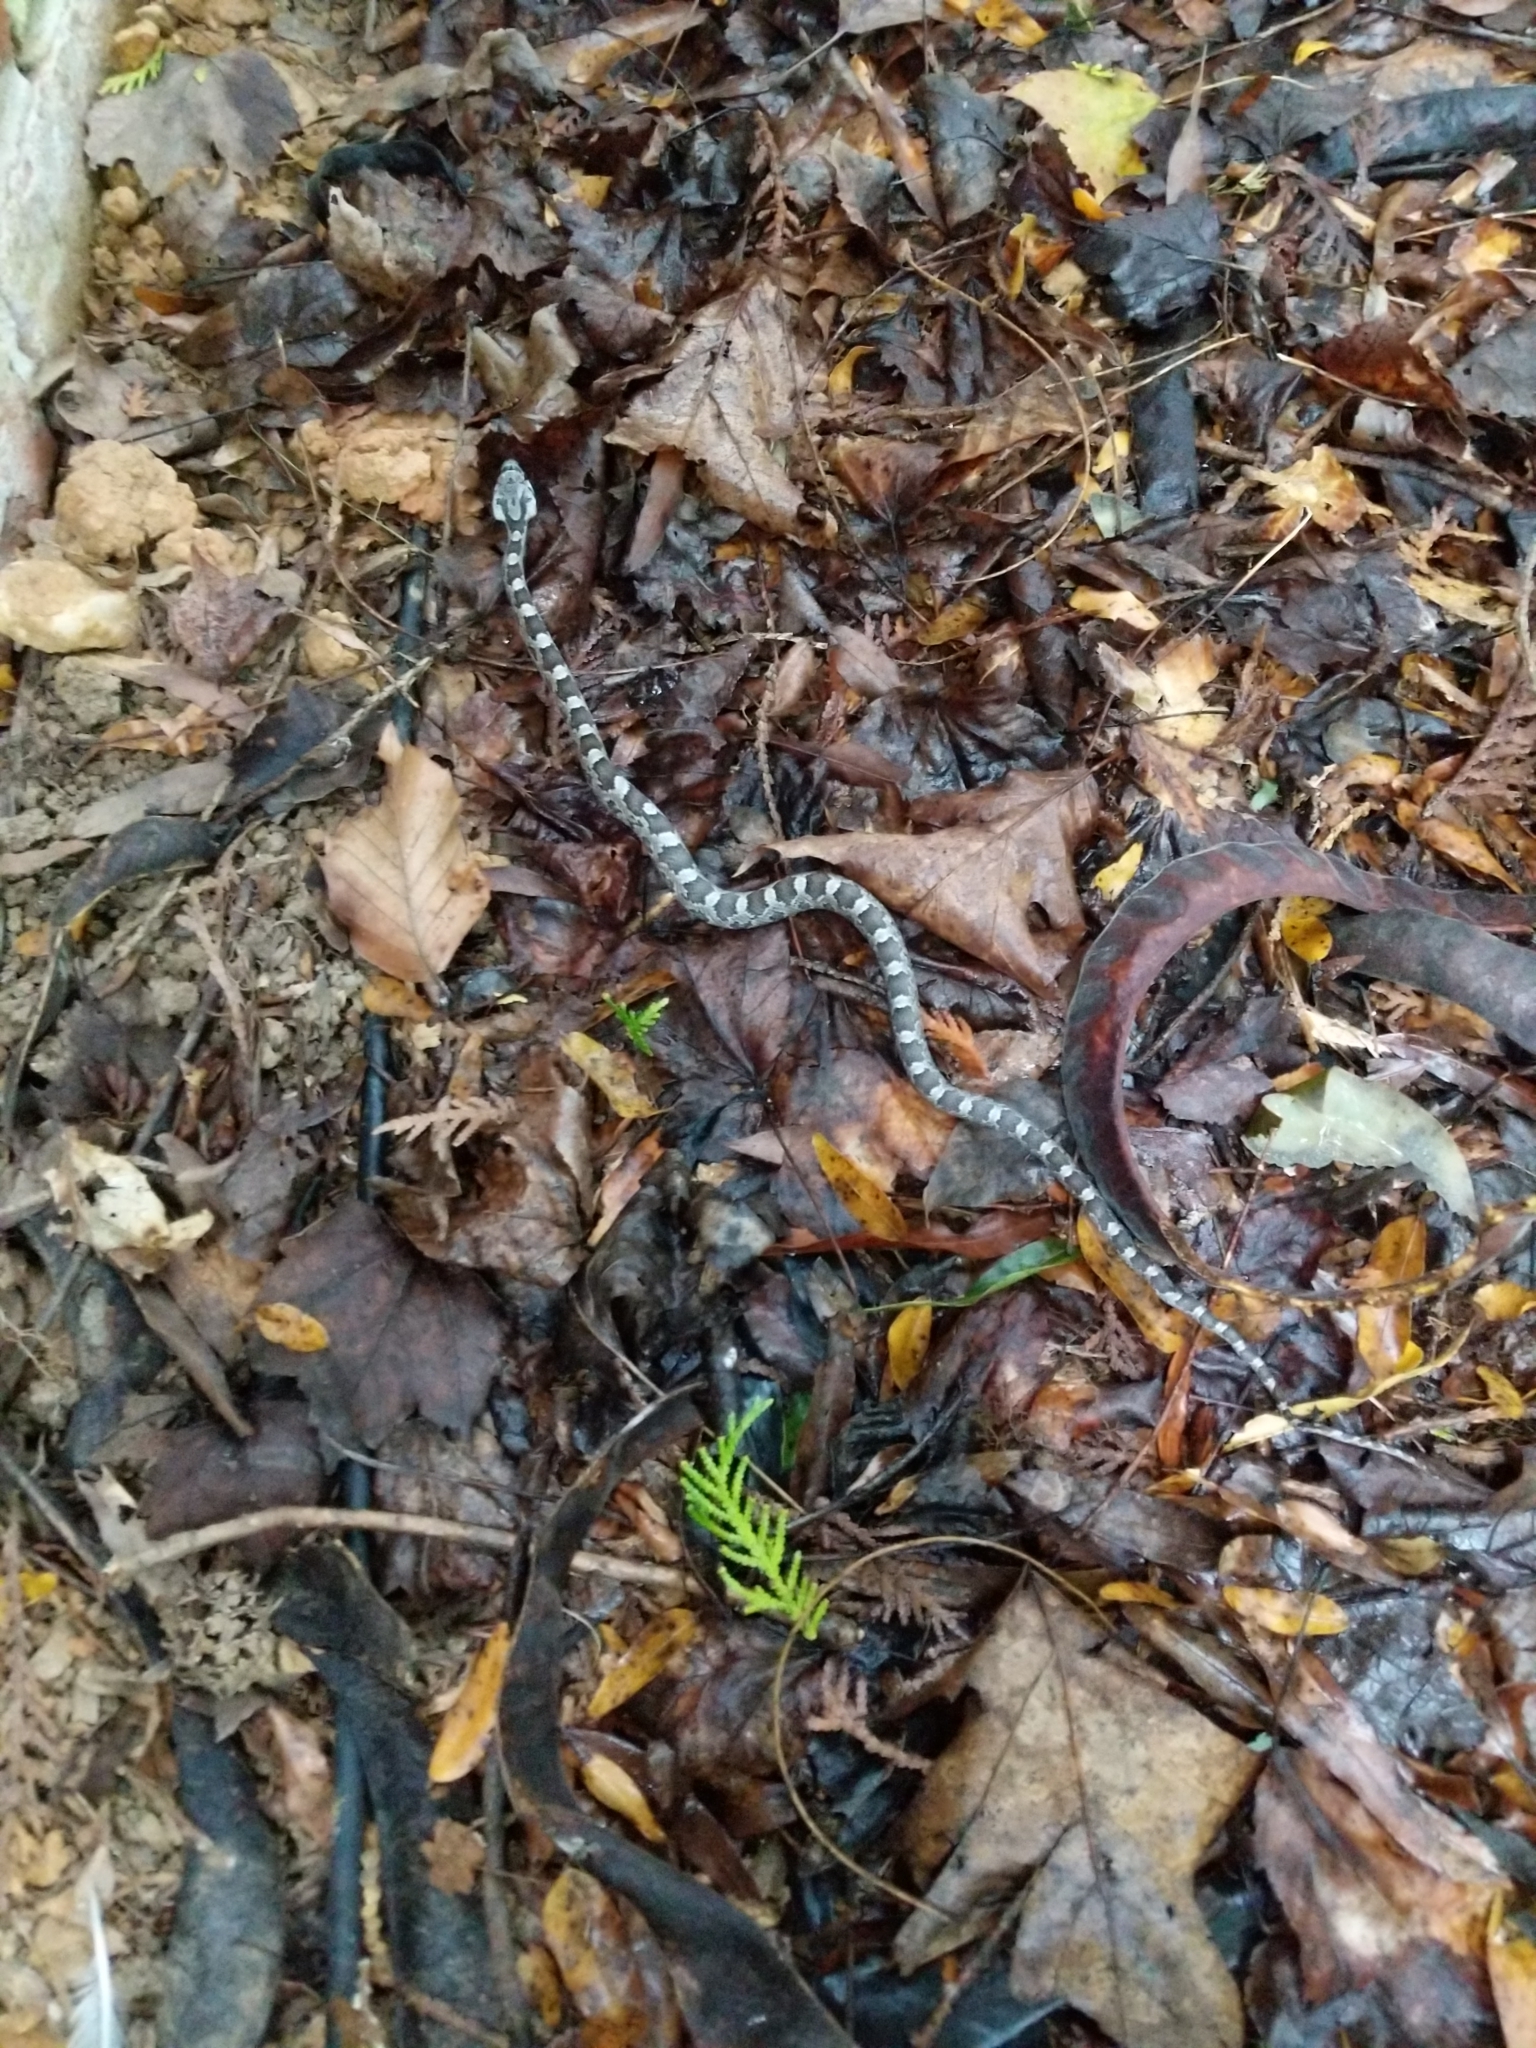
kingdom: Animalia
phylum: Chordata
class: Squamata
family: Colubridae
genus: Pantherophis
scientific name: Pantherophis alleghaniensis
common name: Eastern rat snake
